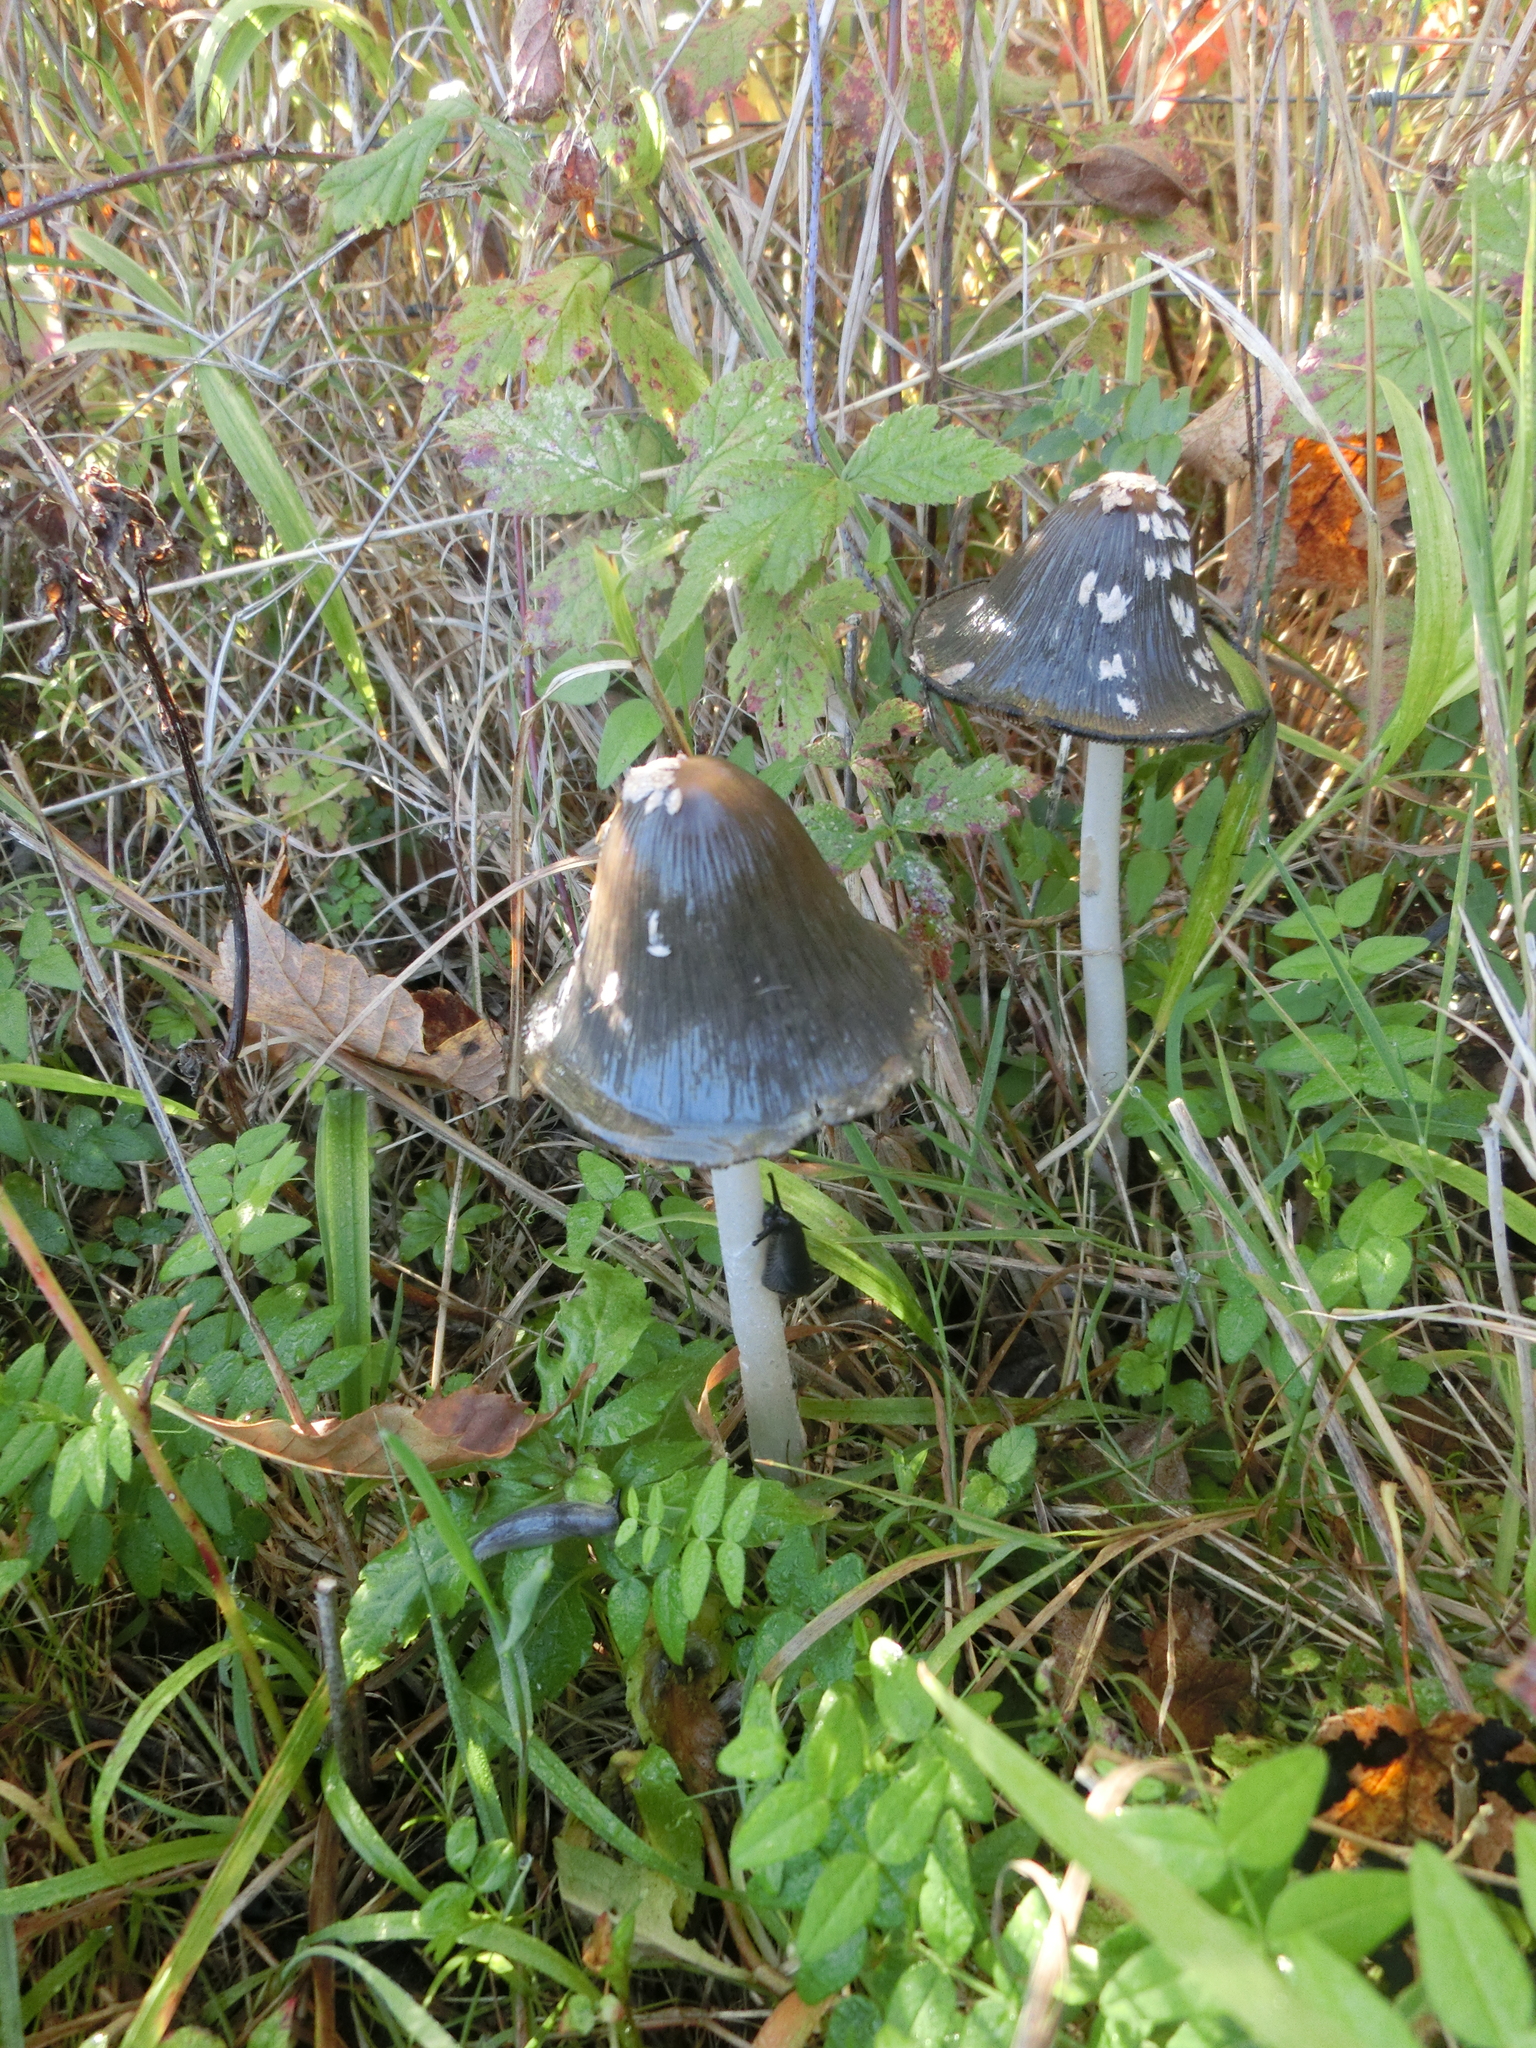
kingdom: Fungi
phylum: Basidiomycota
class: Agaricomycetes
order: Agaricales
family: Psathyrellaceae
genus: Coprinopsis
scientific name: Coprinopsis picacea
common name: Magpie inkcap
